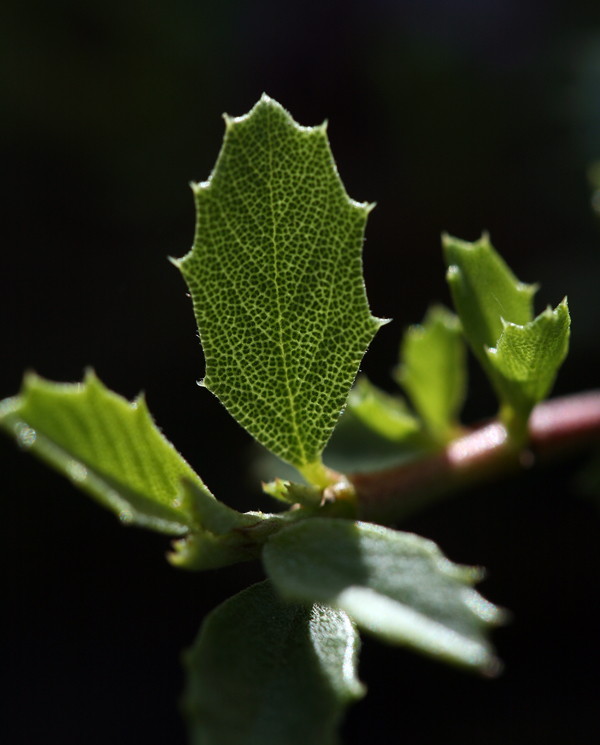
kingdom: Plantae
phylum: Tracheophyta
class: Magnoliopsida
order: Rosales
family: Rhamnaceae
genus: Ceanothus
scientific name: Ceanothus prostratus
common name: Mahala-mat
